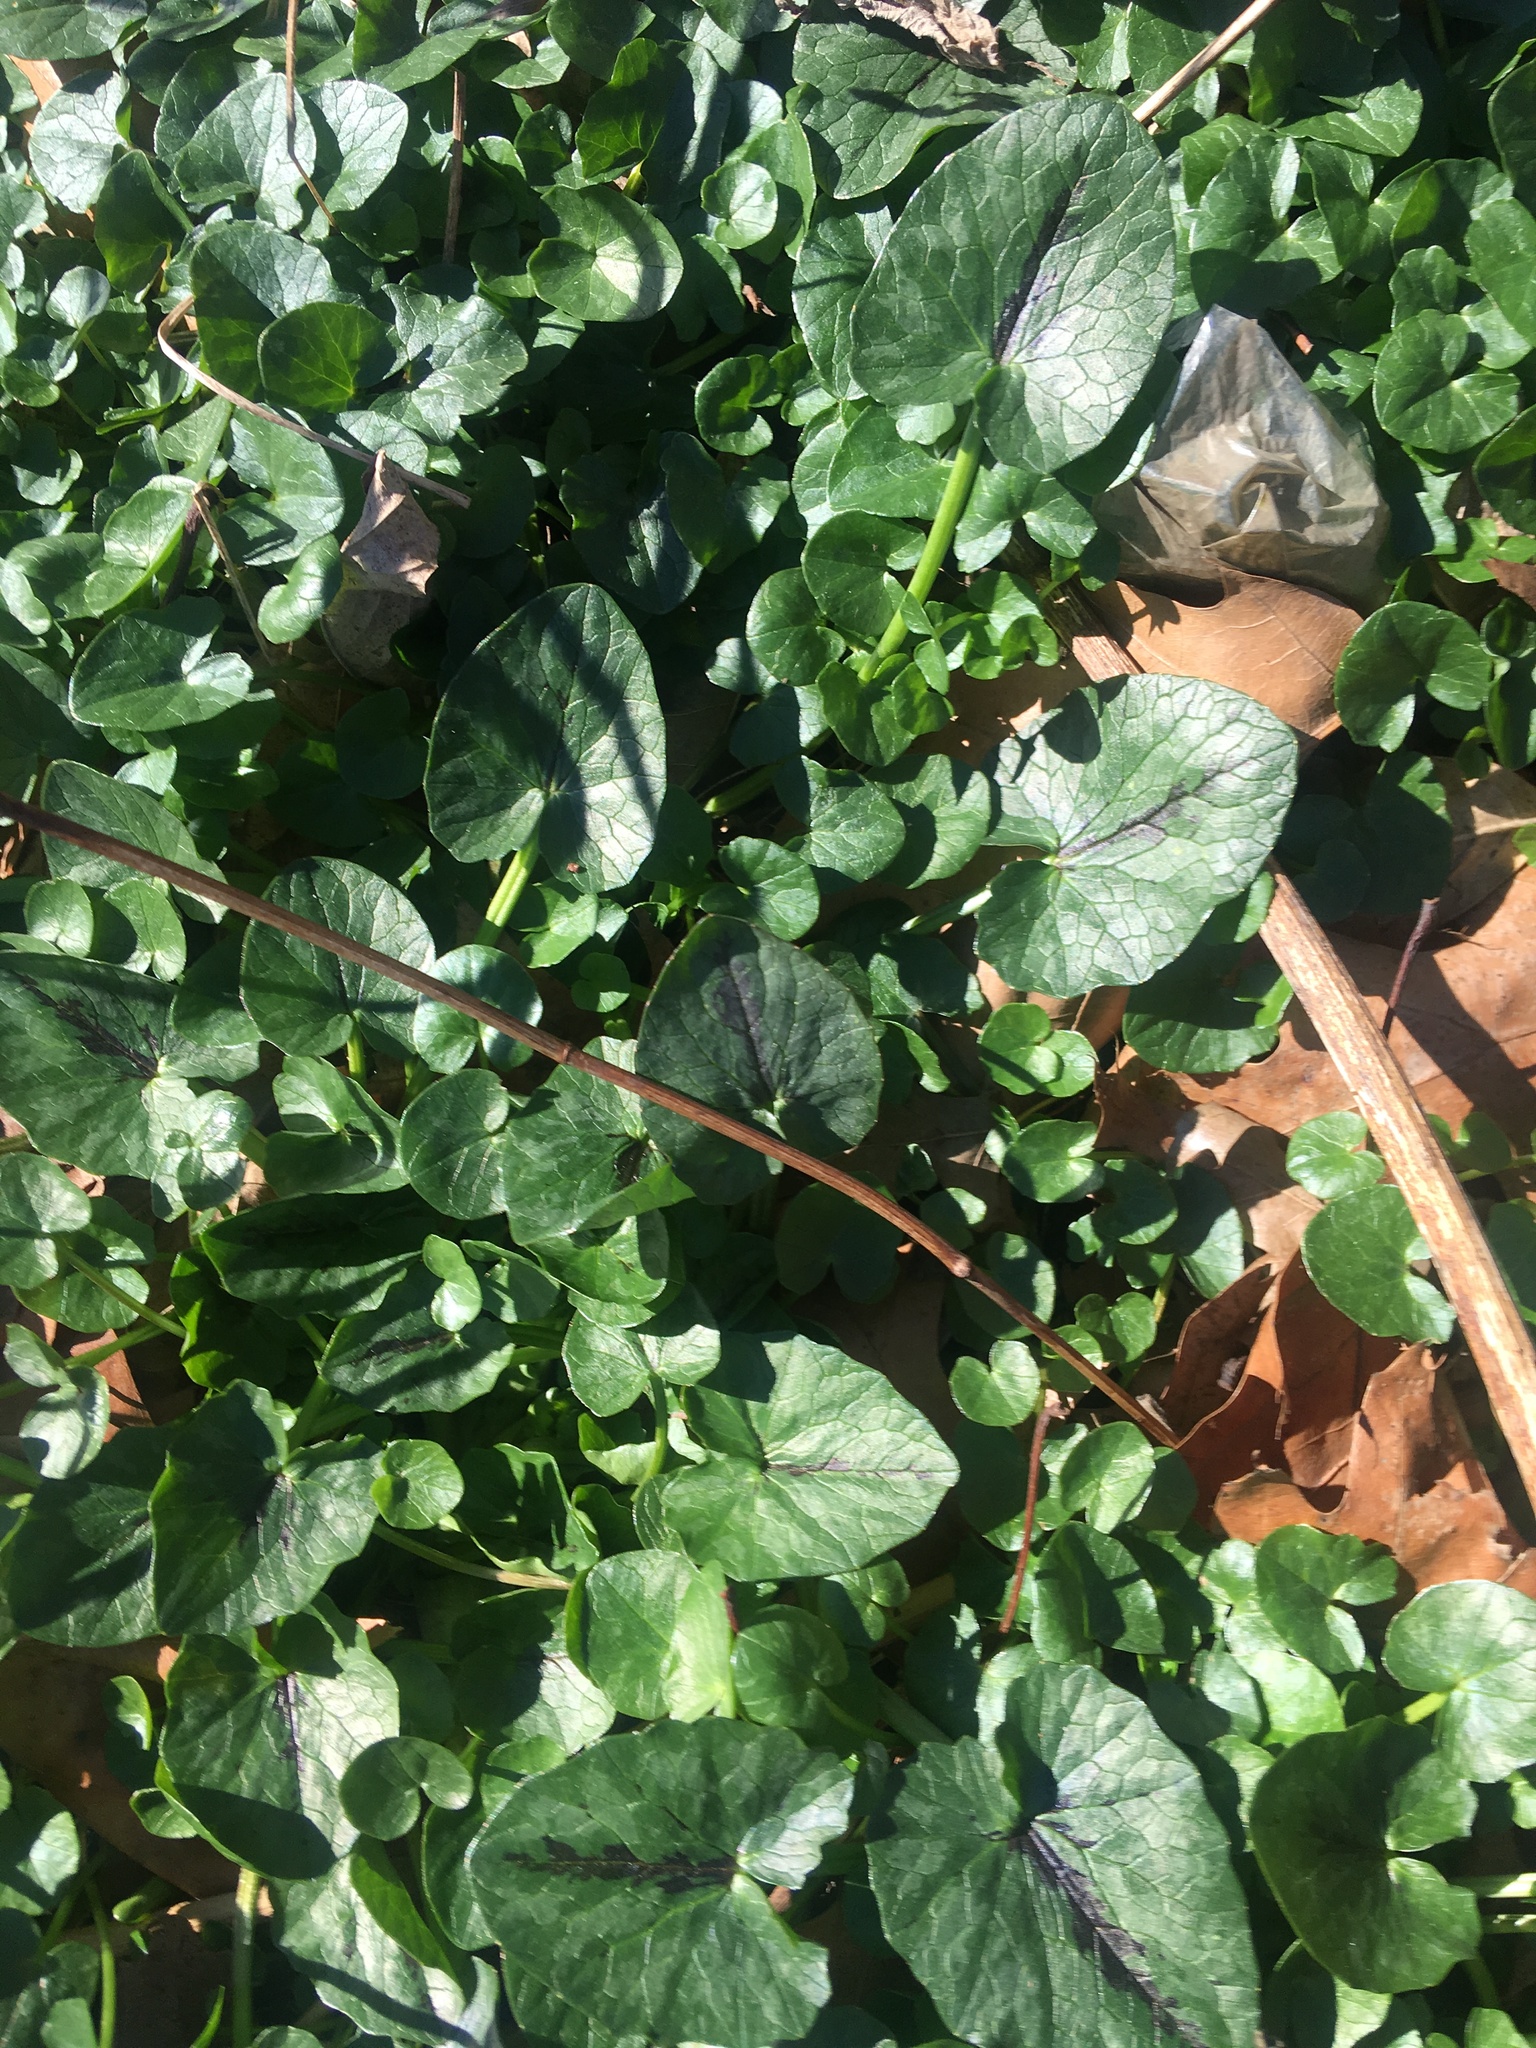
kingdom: Plantae
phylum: Tracheophyta
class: Magnoliopsida
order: Ranunculales
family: Ranunculaceae
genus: Ficaria
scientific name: Ficaria verna
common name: Lesser celandine
